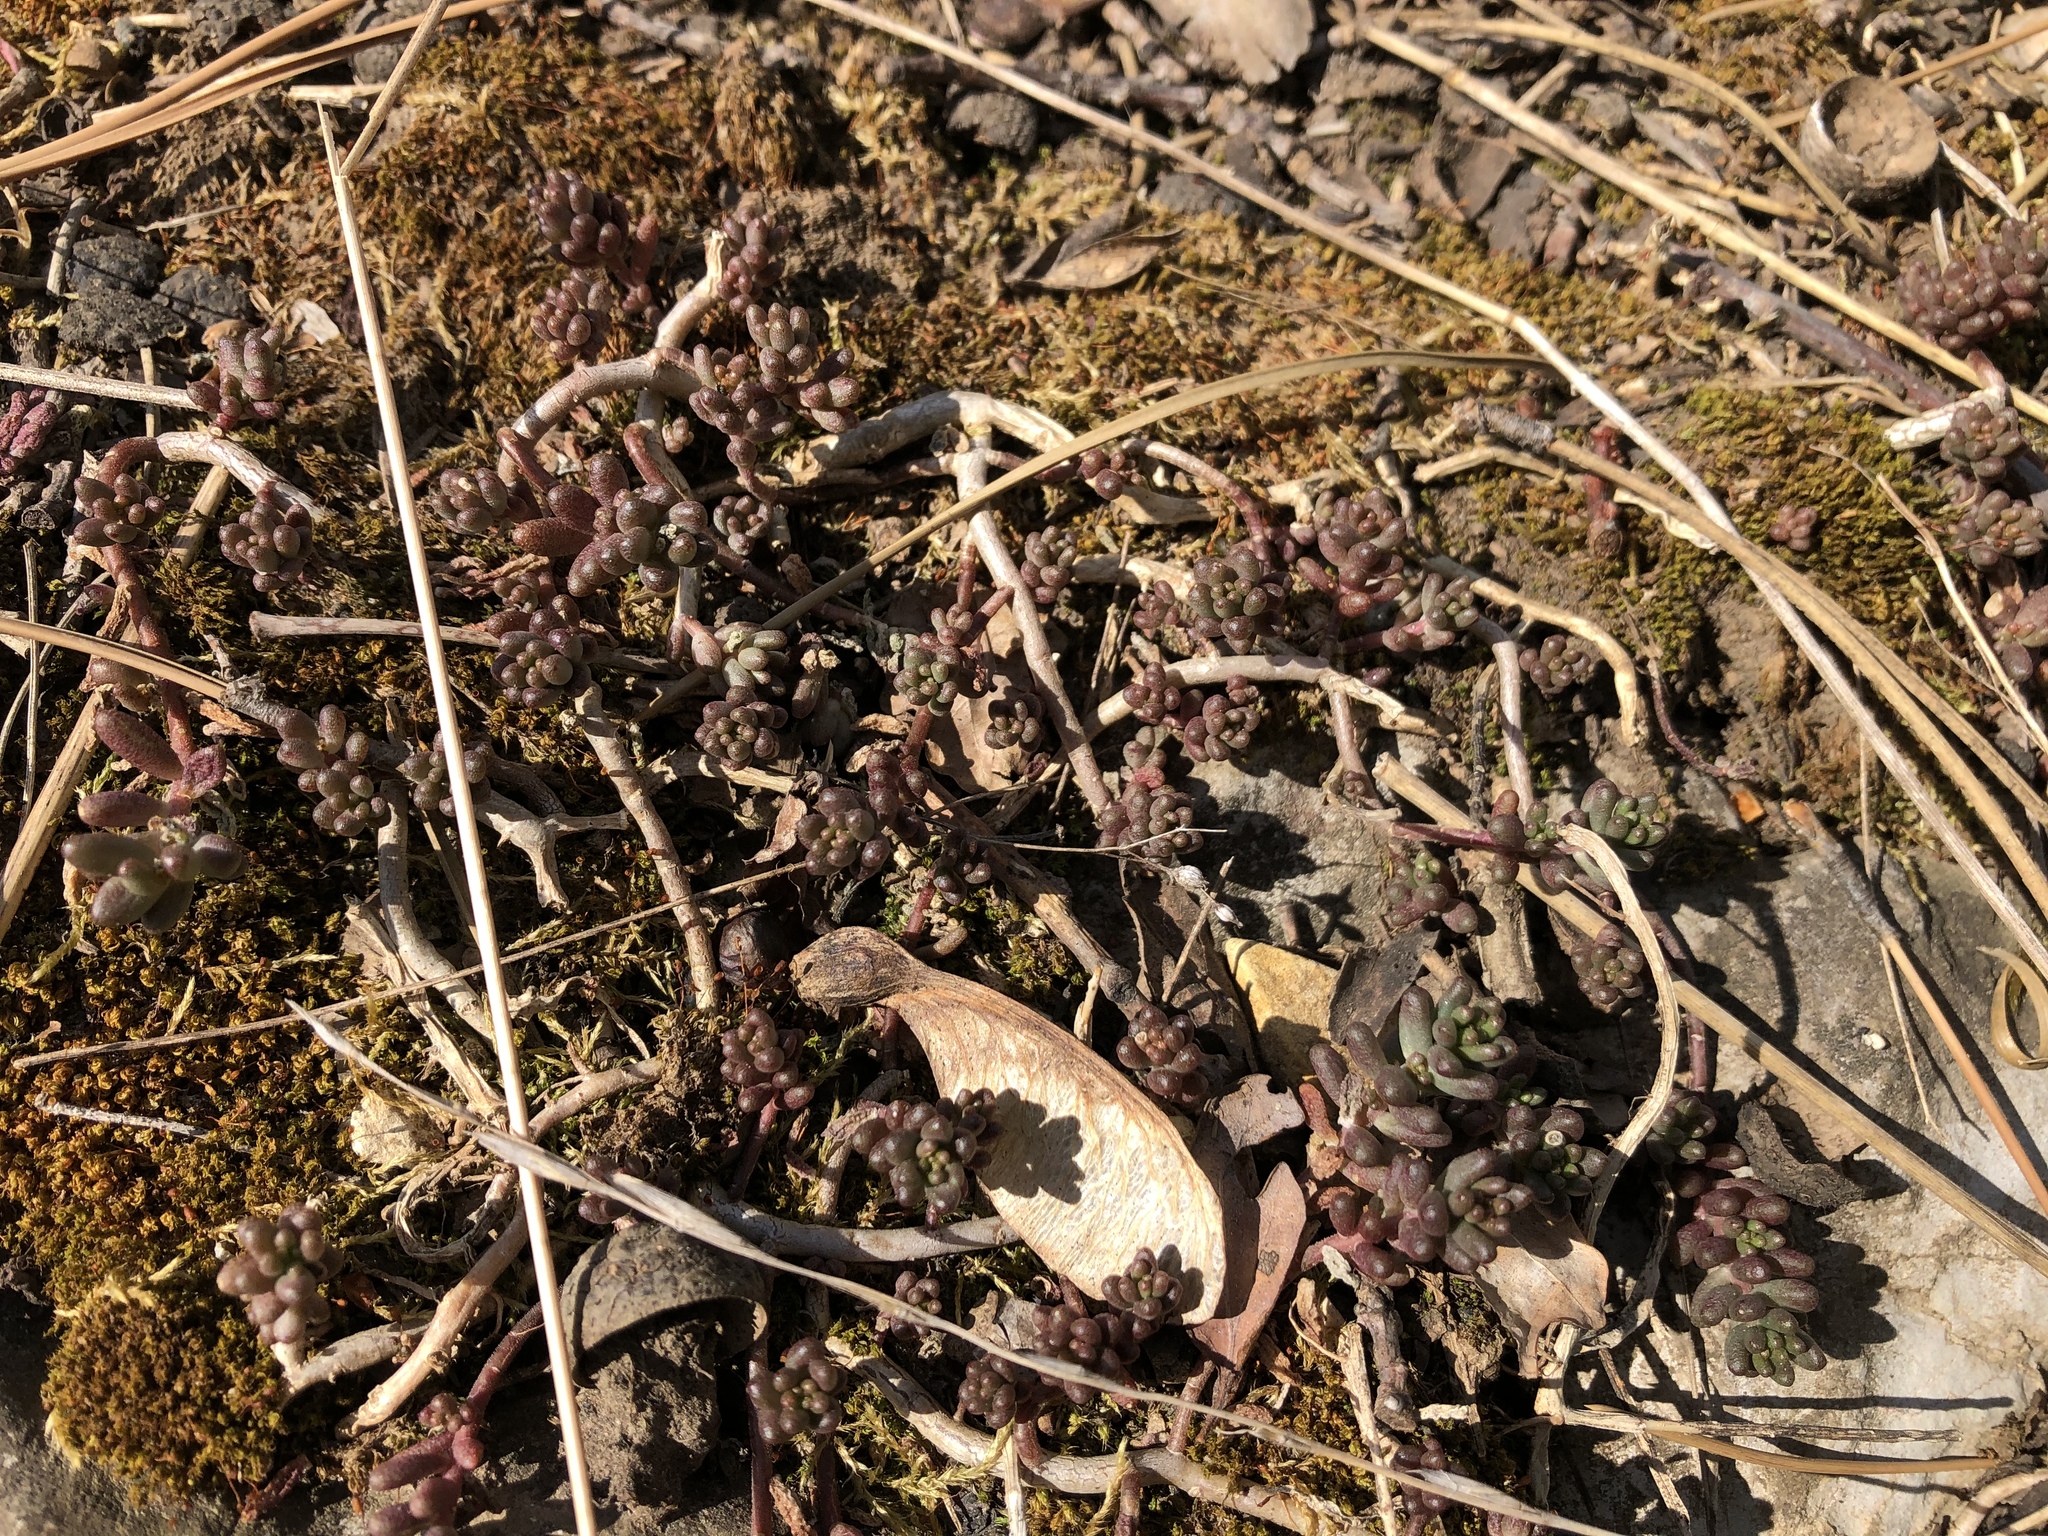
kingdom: Plantae
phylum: Tracheophyta
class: Magnoliopsida
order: Saxifragales
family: Crassulaceae
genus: Sedum
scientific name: Sedum album
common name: White stonecrop
